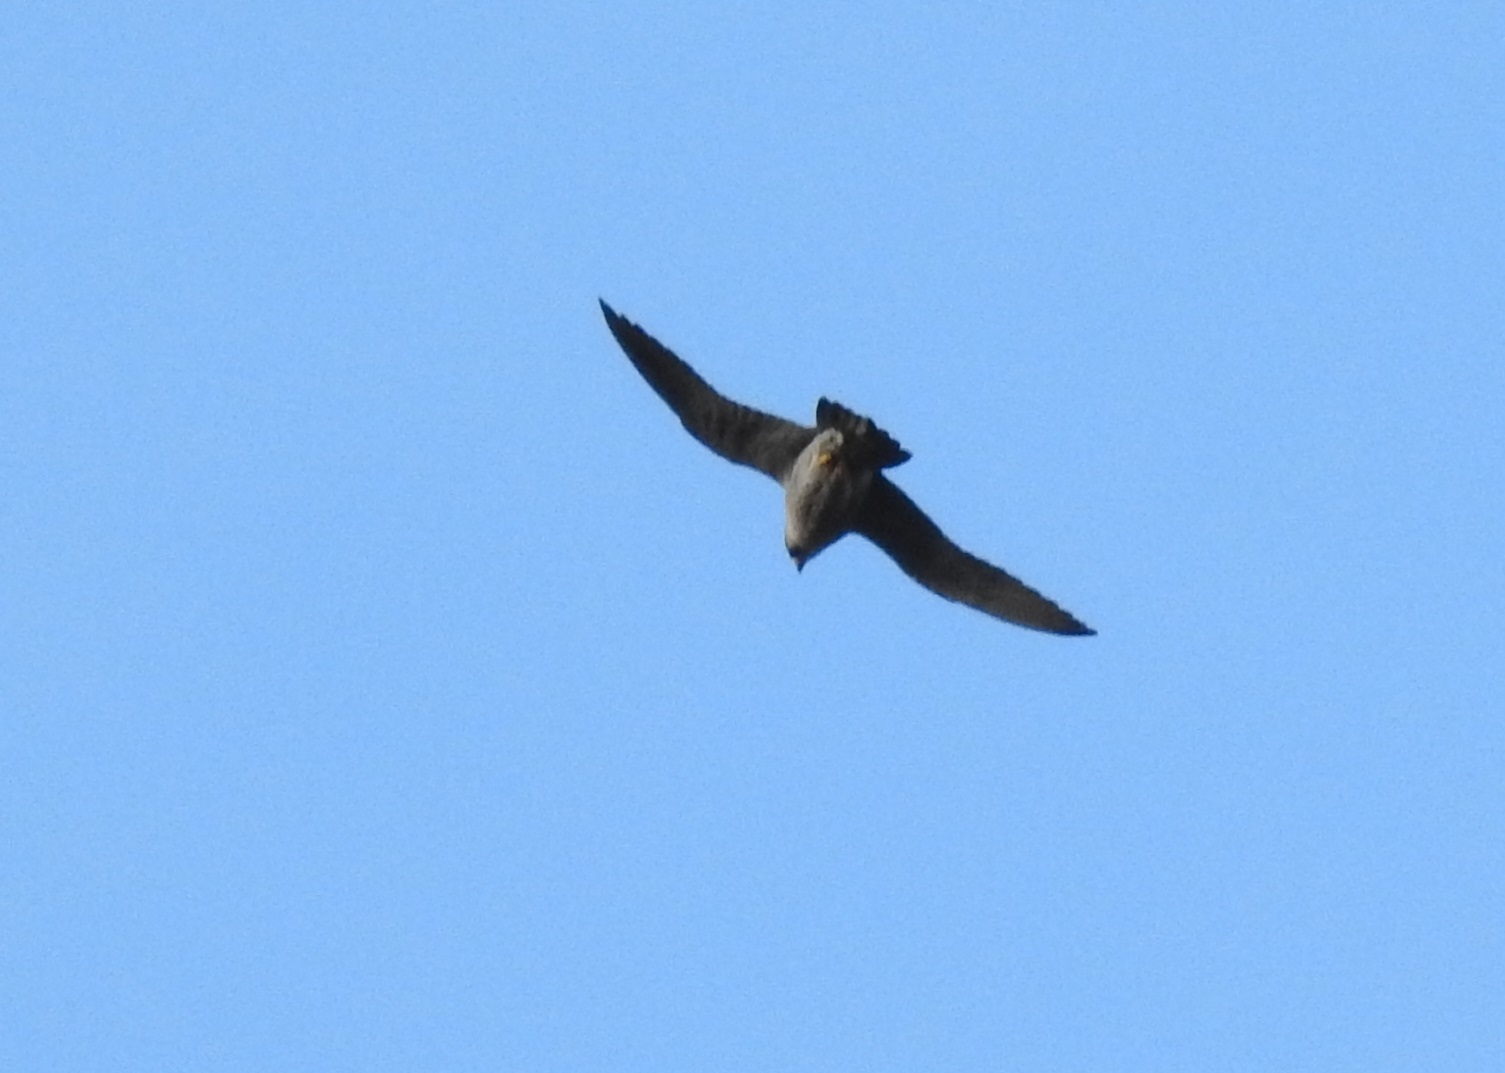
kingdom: Animalia
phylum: Chordata
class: Aves
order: Falconiformes
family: Falconidae
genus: Falco
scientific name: Falco peregrinus
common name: Peregrine falcon
